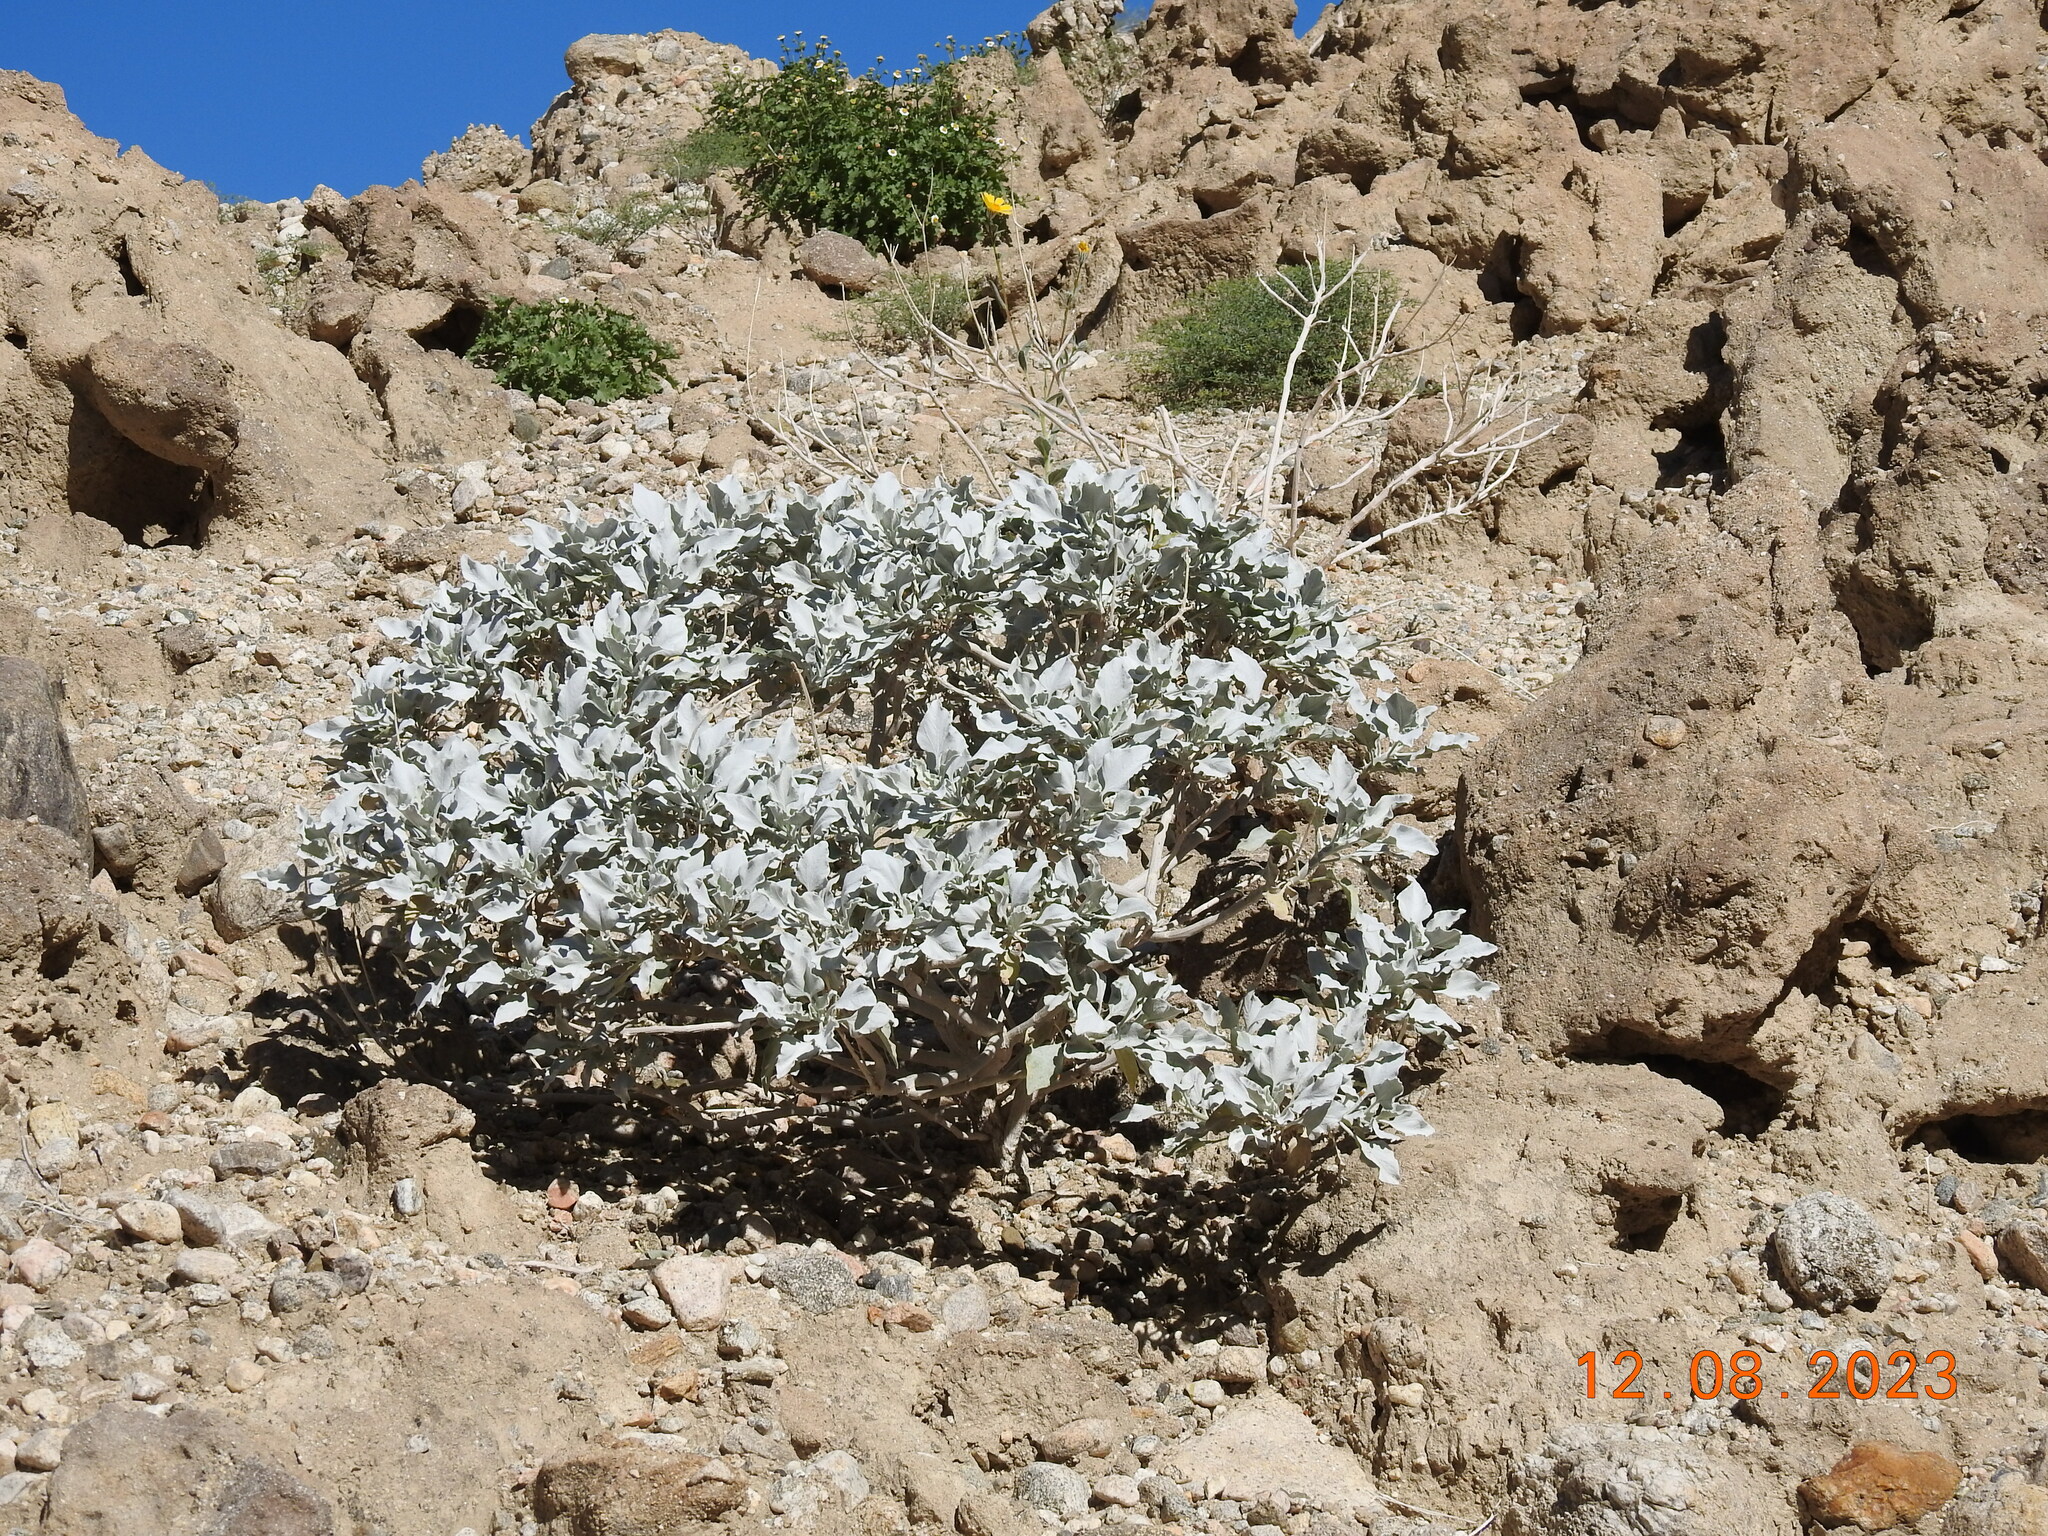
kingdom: Plantae
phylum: Tracheophyta
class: Magnoliopsida
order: Asterales
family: Asteraceae
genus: Encelia
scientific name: Encelia farinosa
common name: Brittlebush
